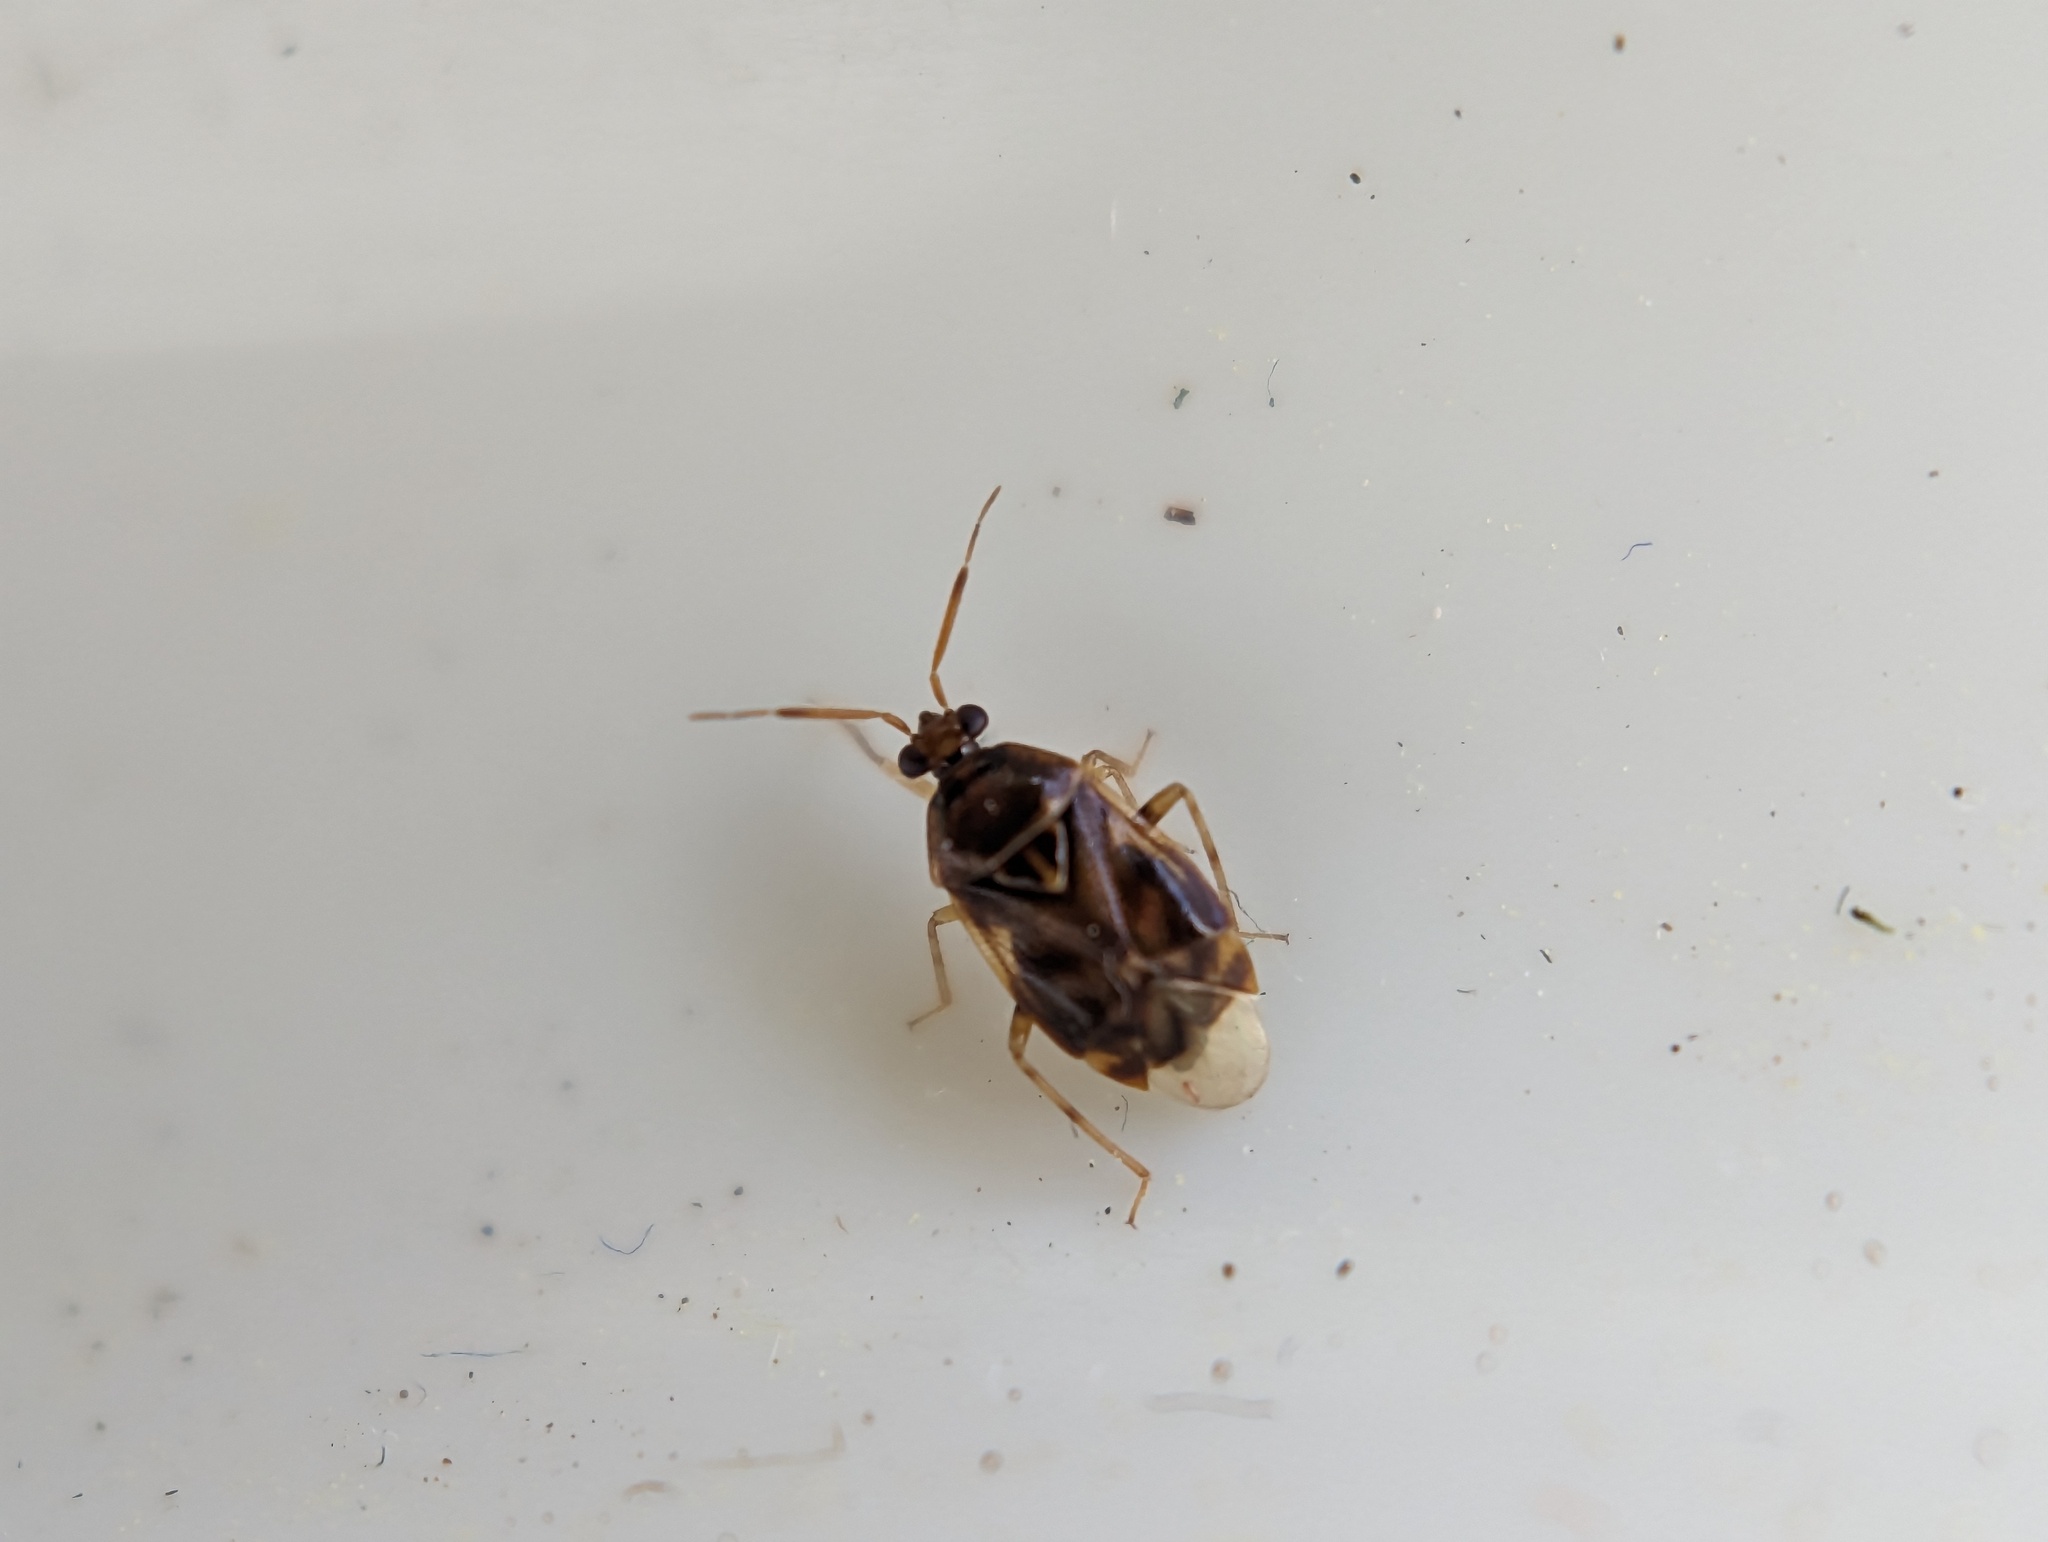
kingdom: Animalia
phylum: Arthropoda
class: Insecta
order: Hemiptera
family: Miridae
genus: Deraeocoris
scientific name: Deraeocoris lutescens
